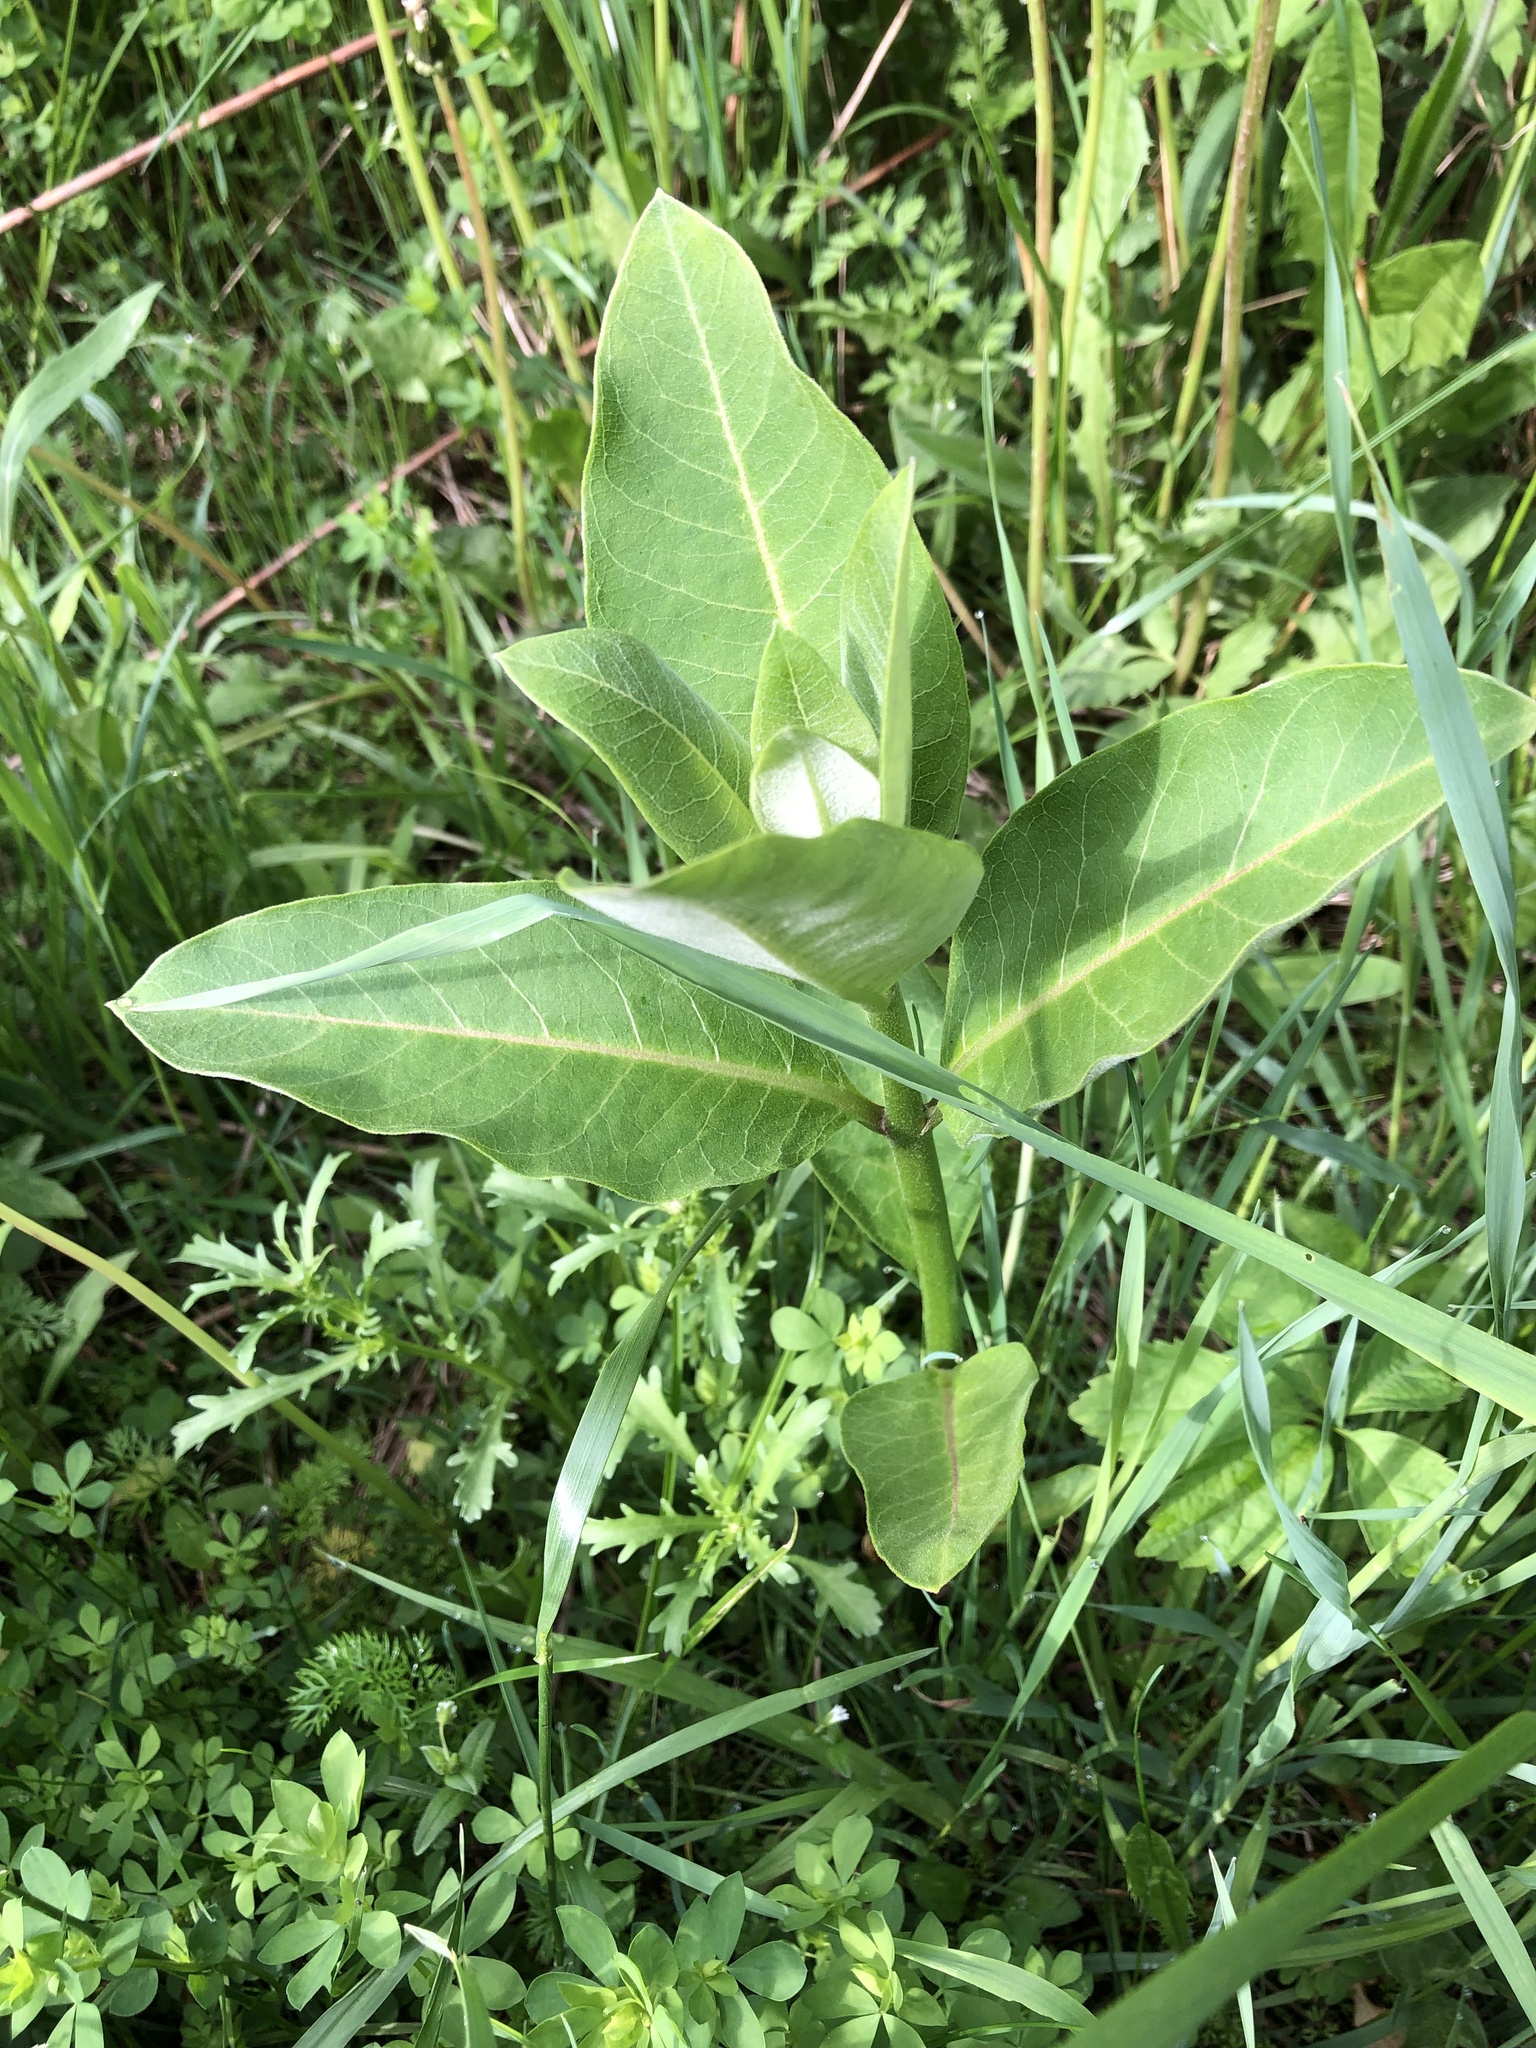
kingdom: Plantae
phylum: Tracheophyta
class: Magnoliopsida
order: Gentianales
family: Apocynaceae
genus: Asclepias
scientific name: Asclepias syriaca
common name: Common milkweed
